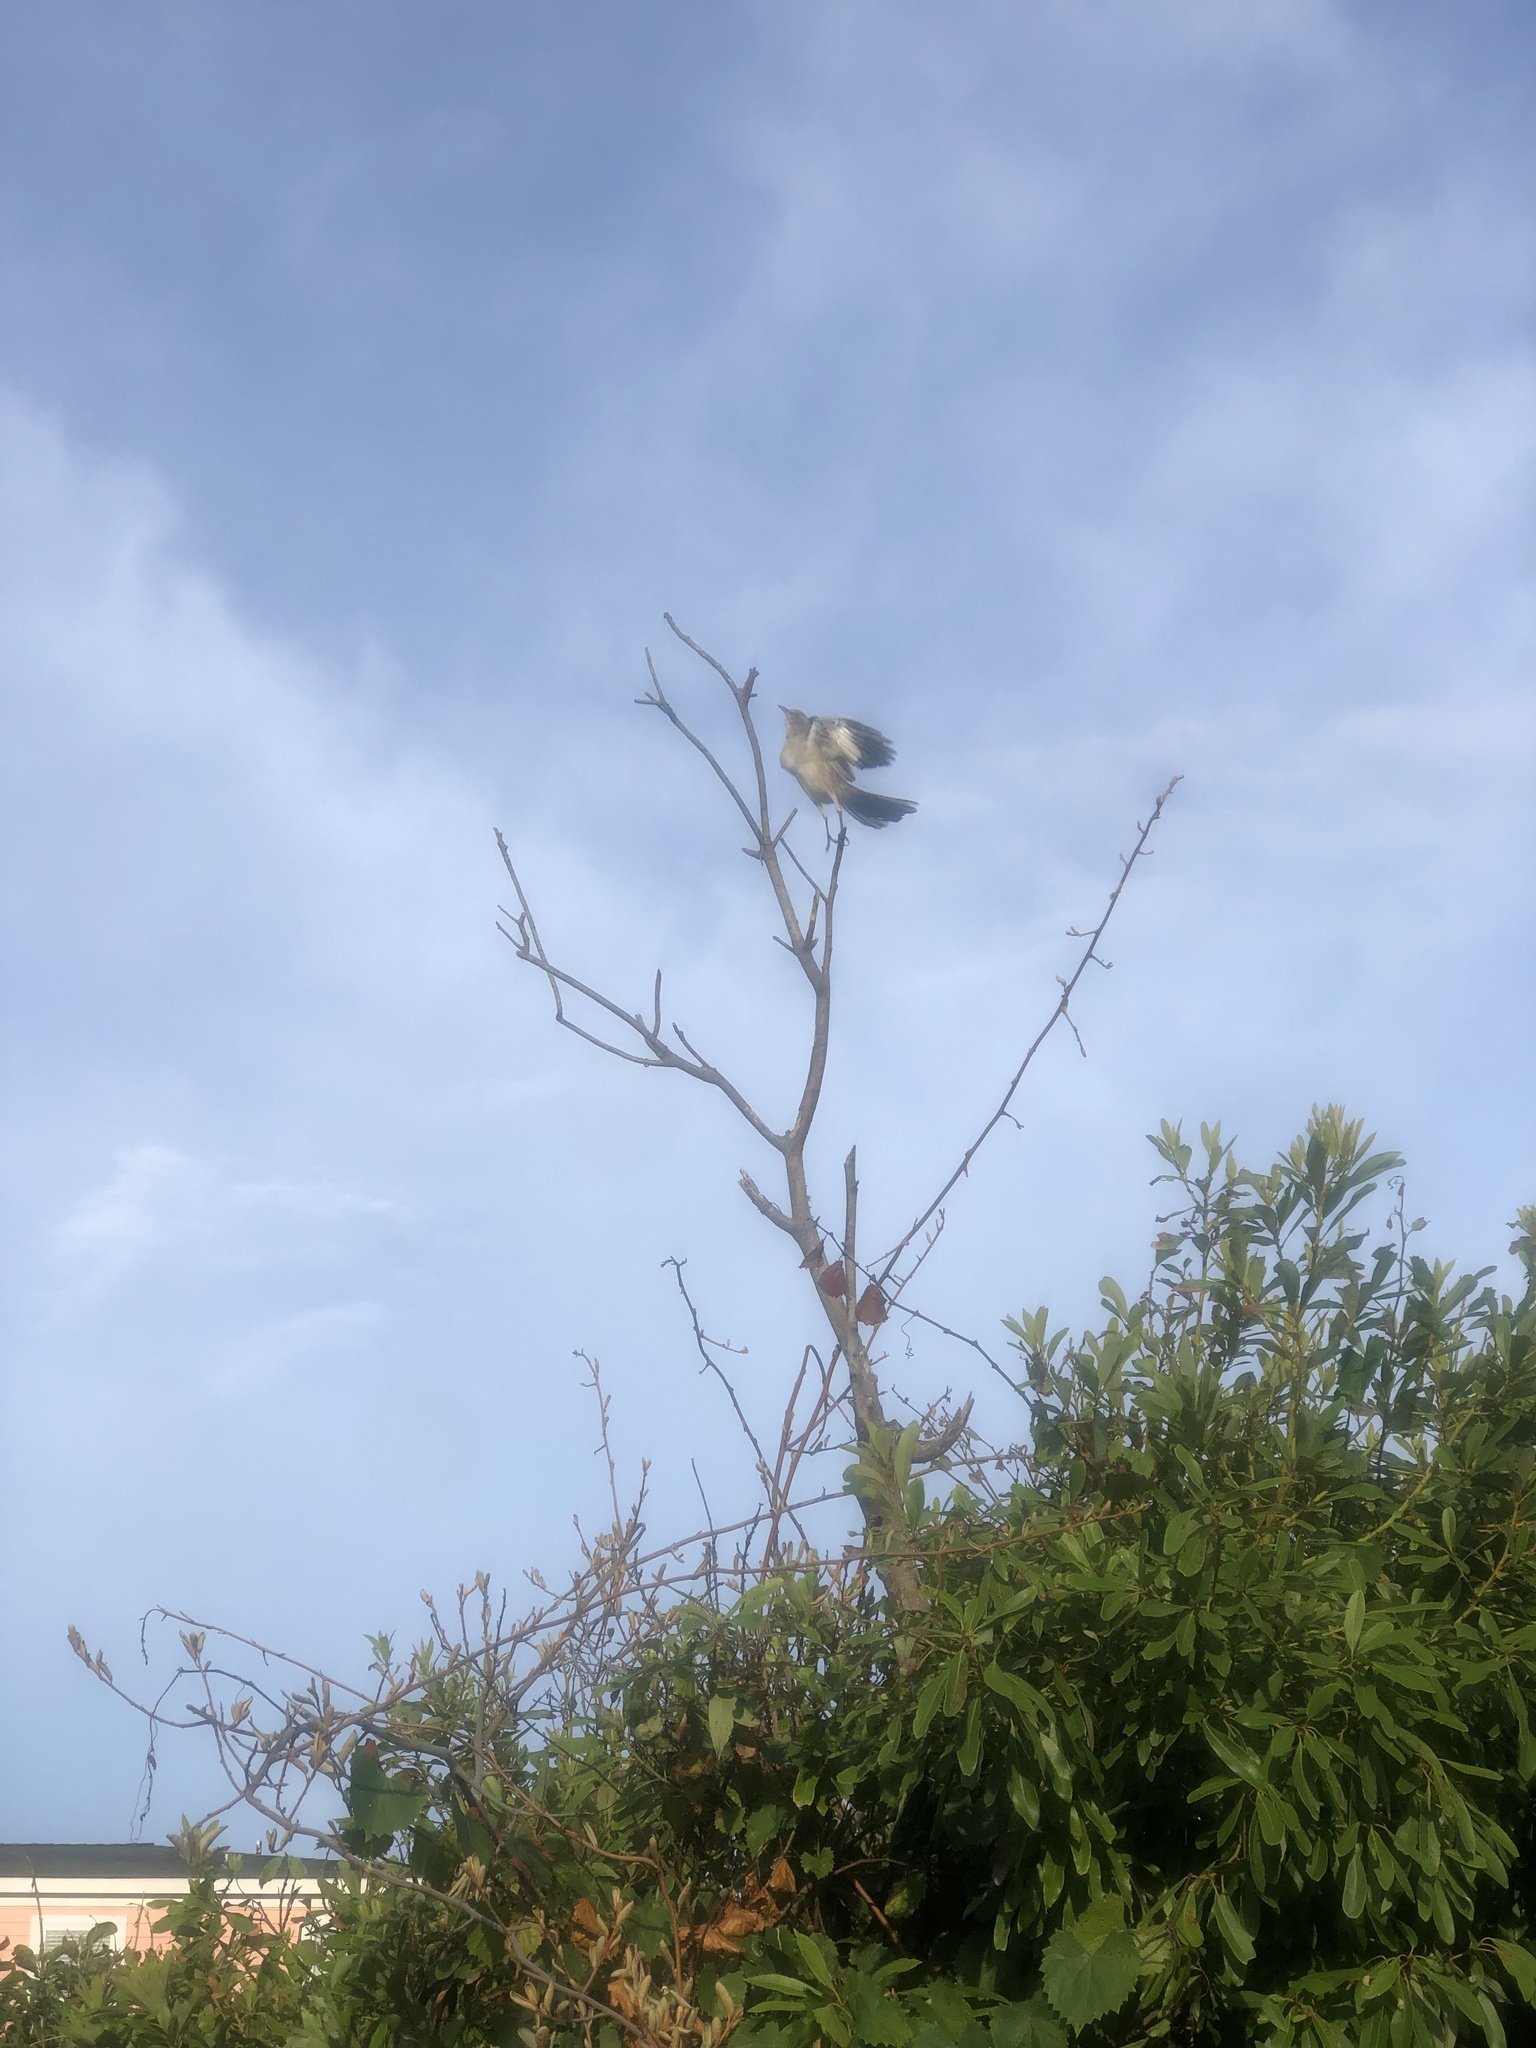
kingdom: Animalia
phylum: Chordata
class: Aves
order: Passeriformes
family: Mimidae
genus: Mimus
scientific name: Mimus polyglottos
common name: Northern mockingbird
